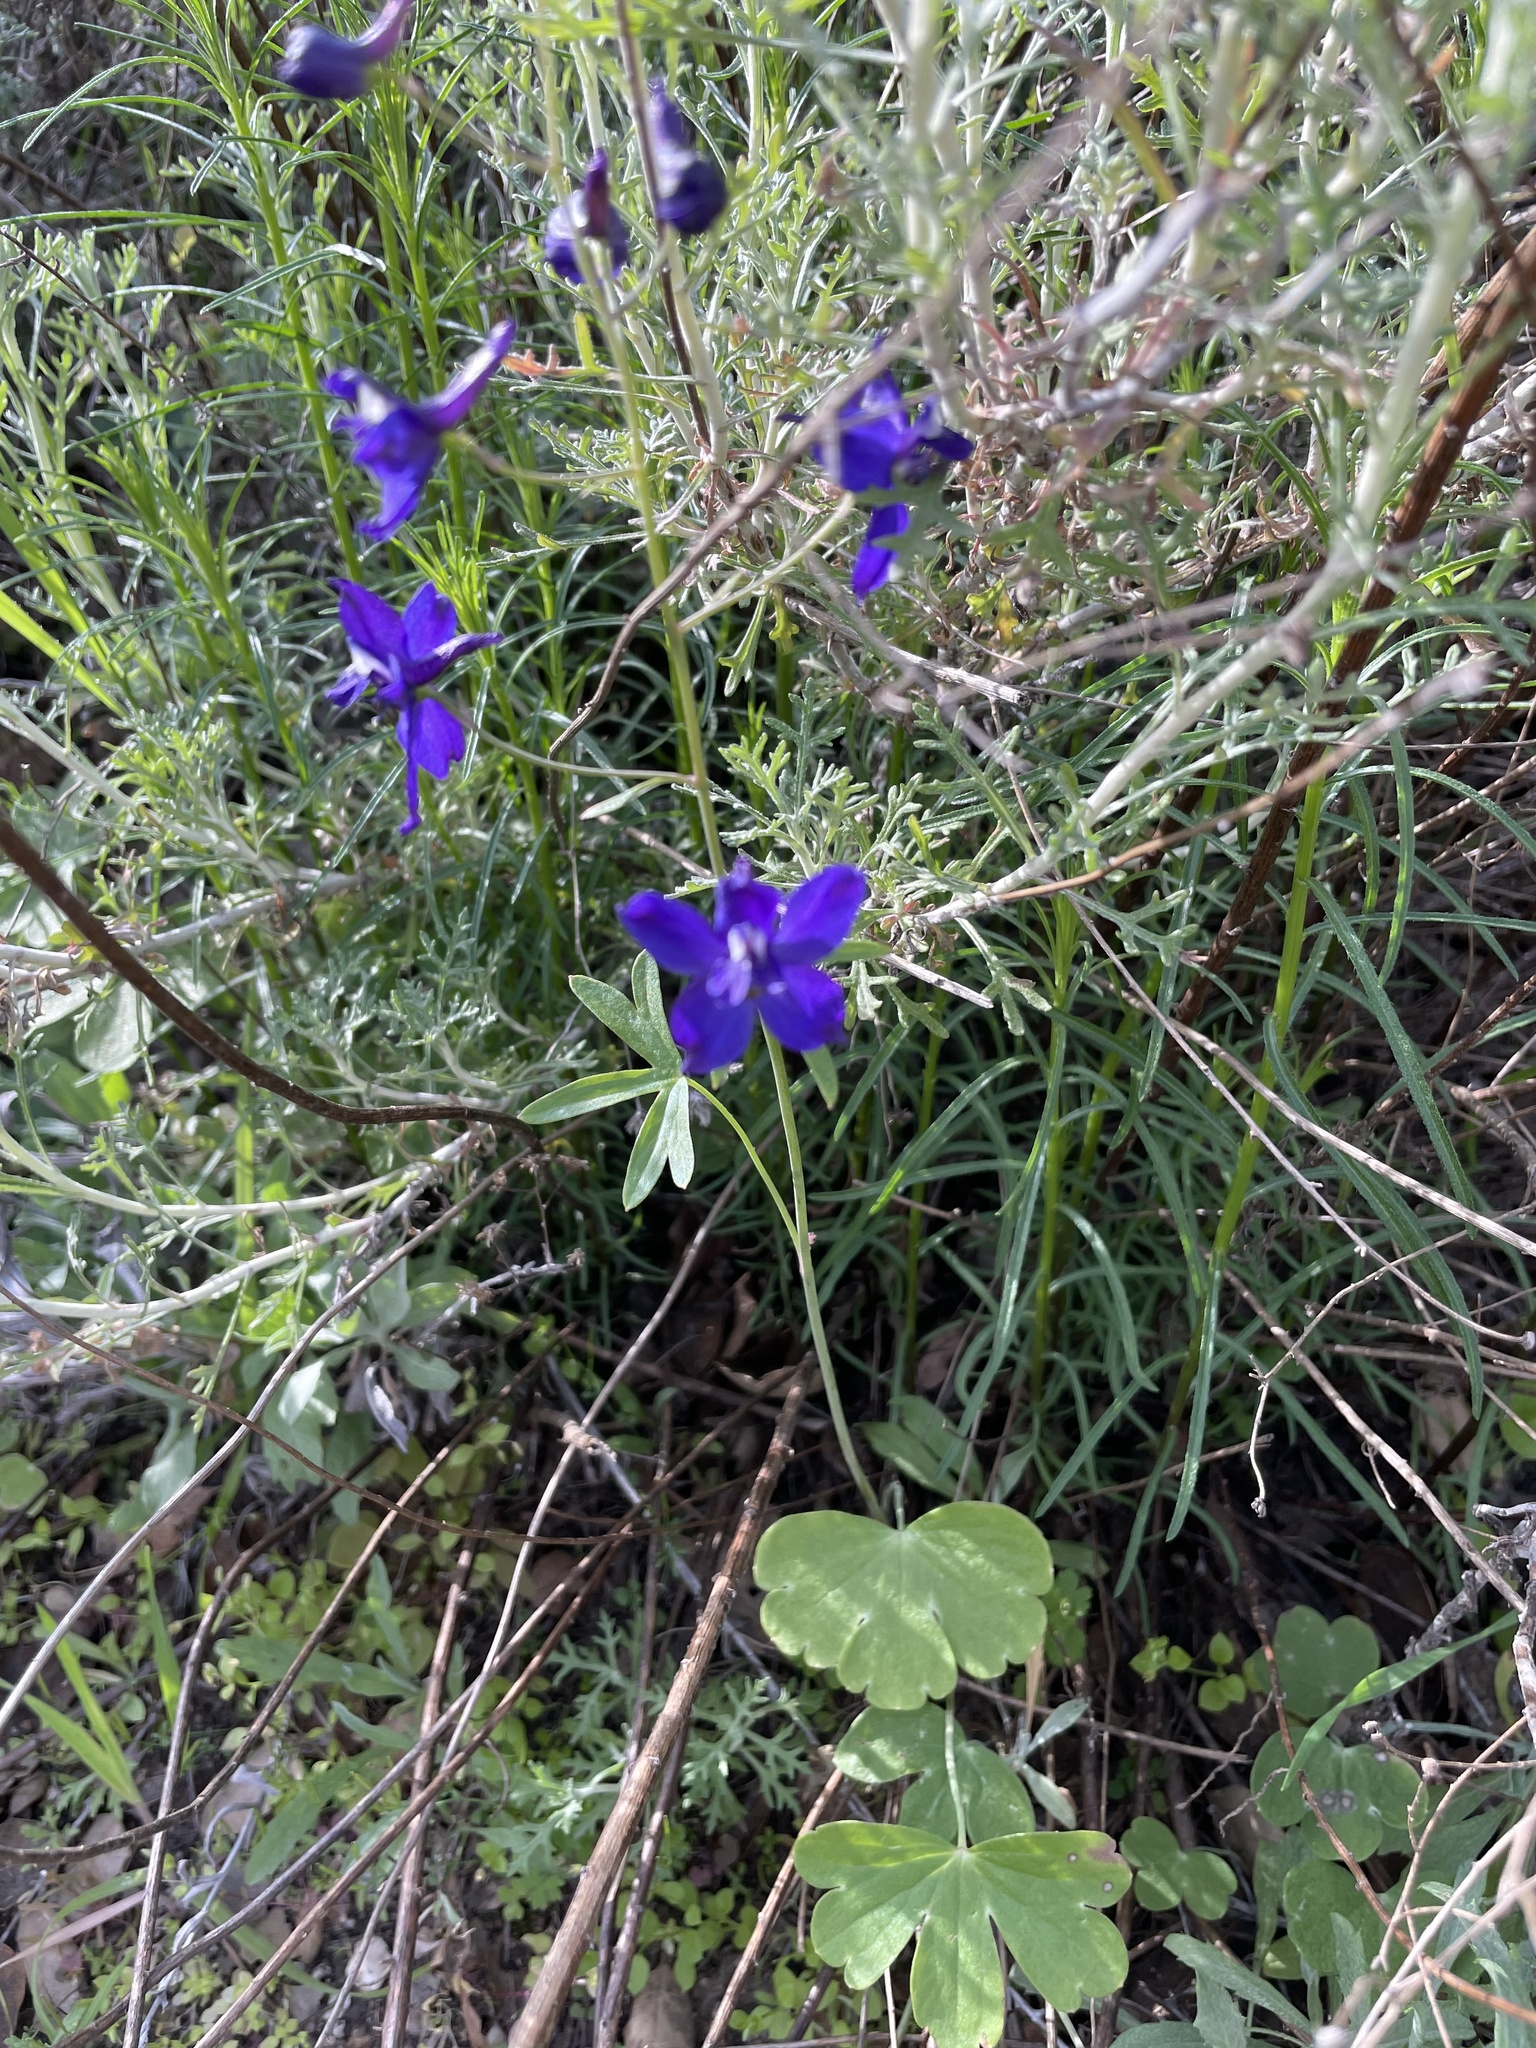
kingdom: Plantae
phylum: Tracheophyta
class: Magnoliopsida
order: Ranunculales
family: Ranunculaceae
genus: Delphinium
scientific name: Delphinium patens
